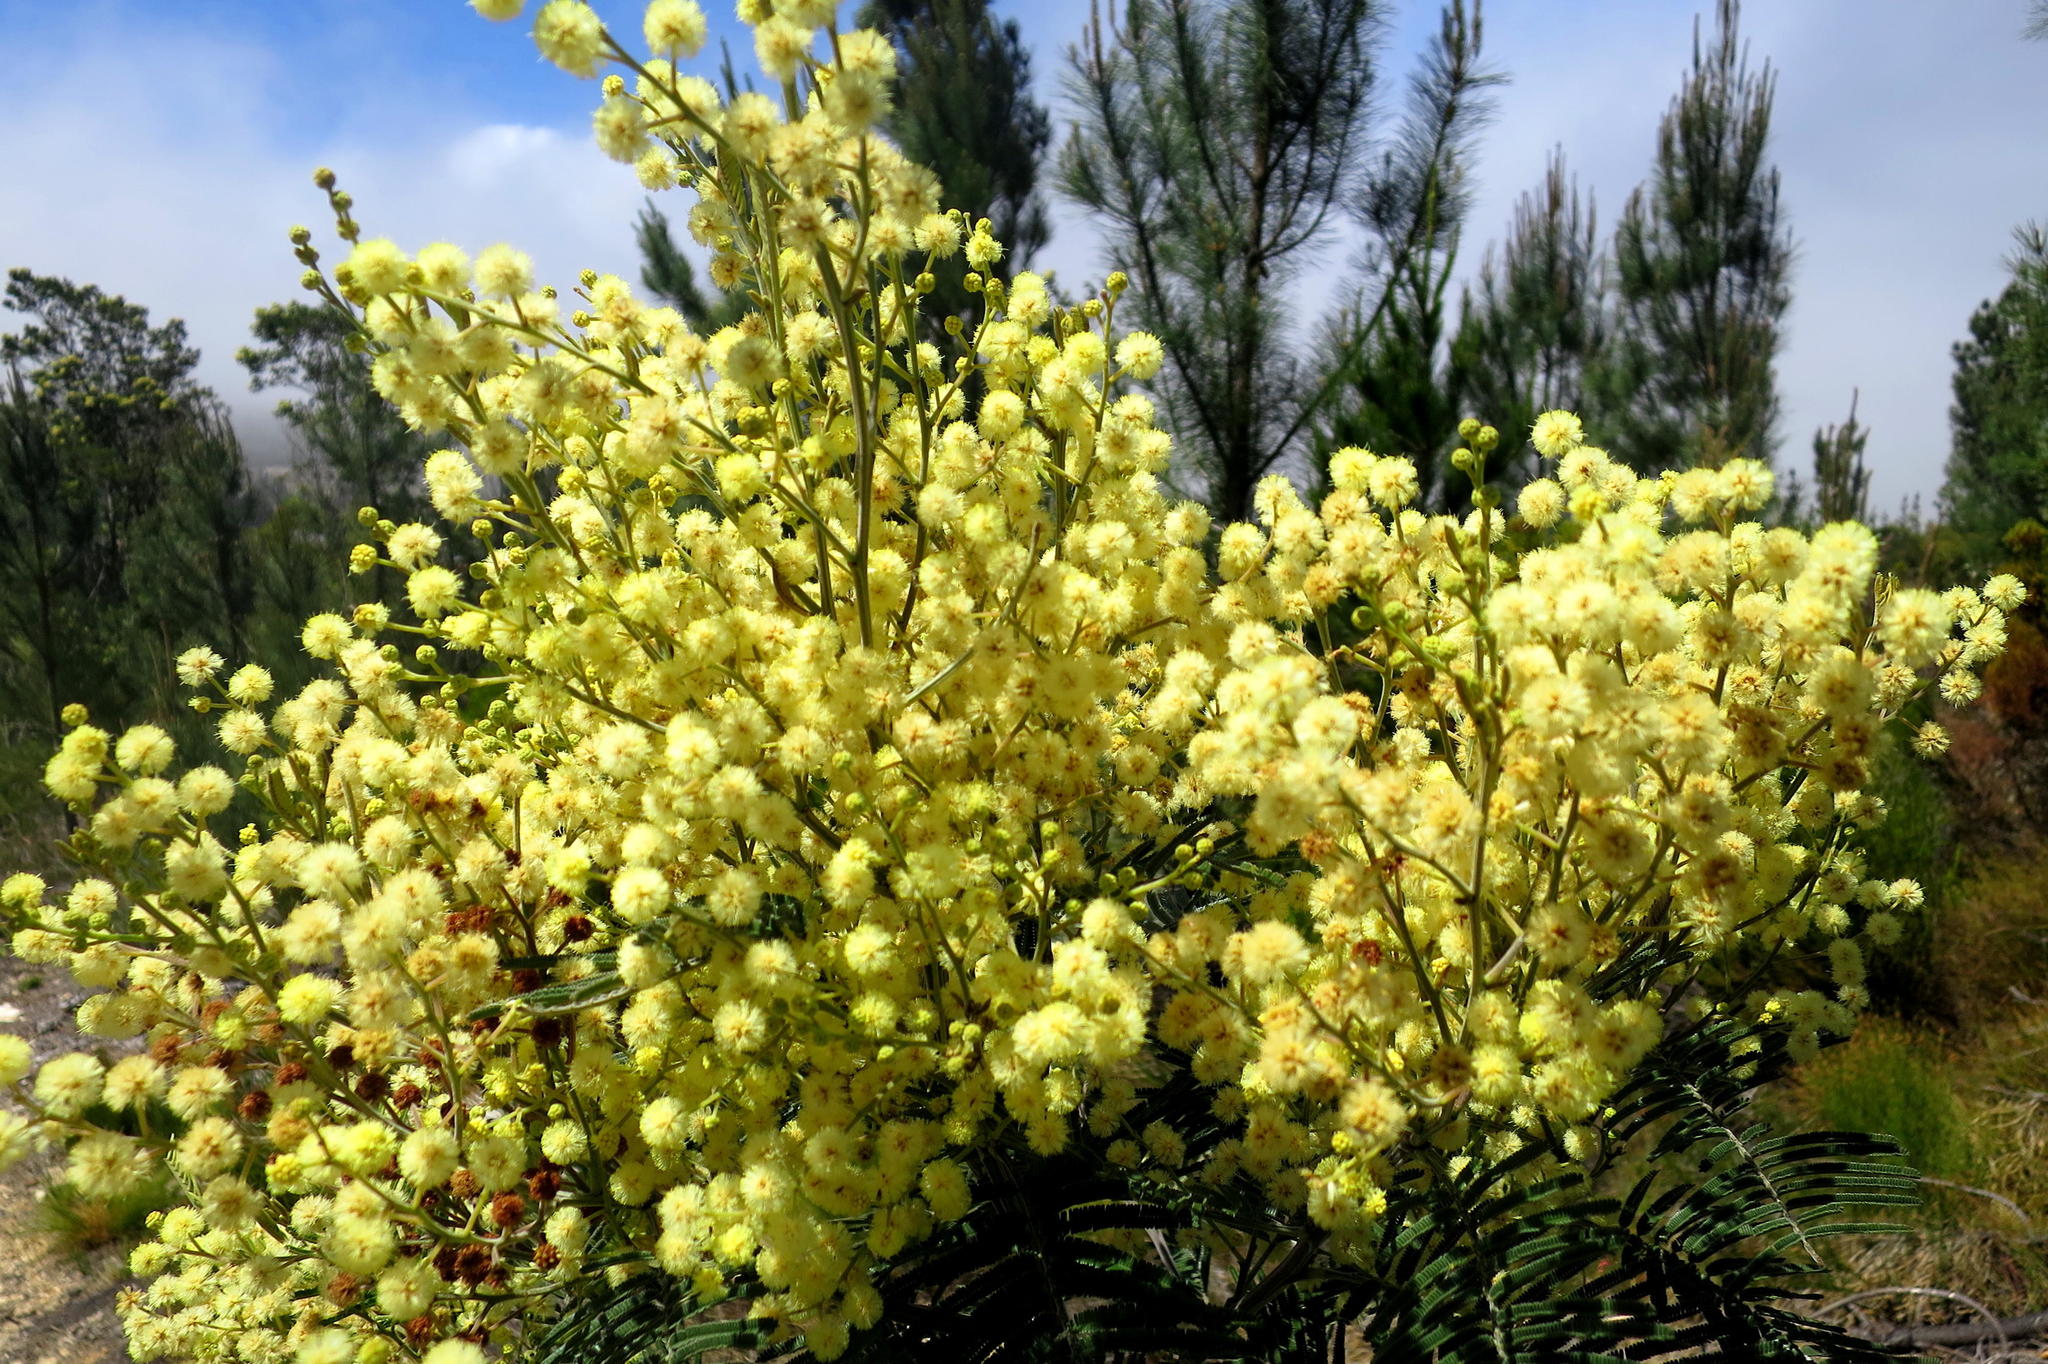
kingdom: Plantae
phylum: Tracheophyta
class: Magnoliopsida
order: Fabales
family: Fabaceae
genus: Acacia
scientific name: Acacia mearnsii
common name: Black wattle
